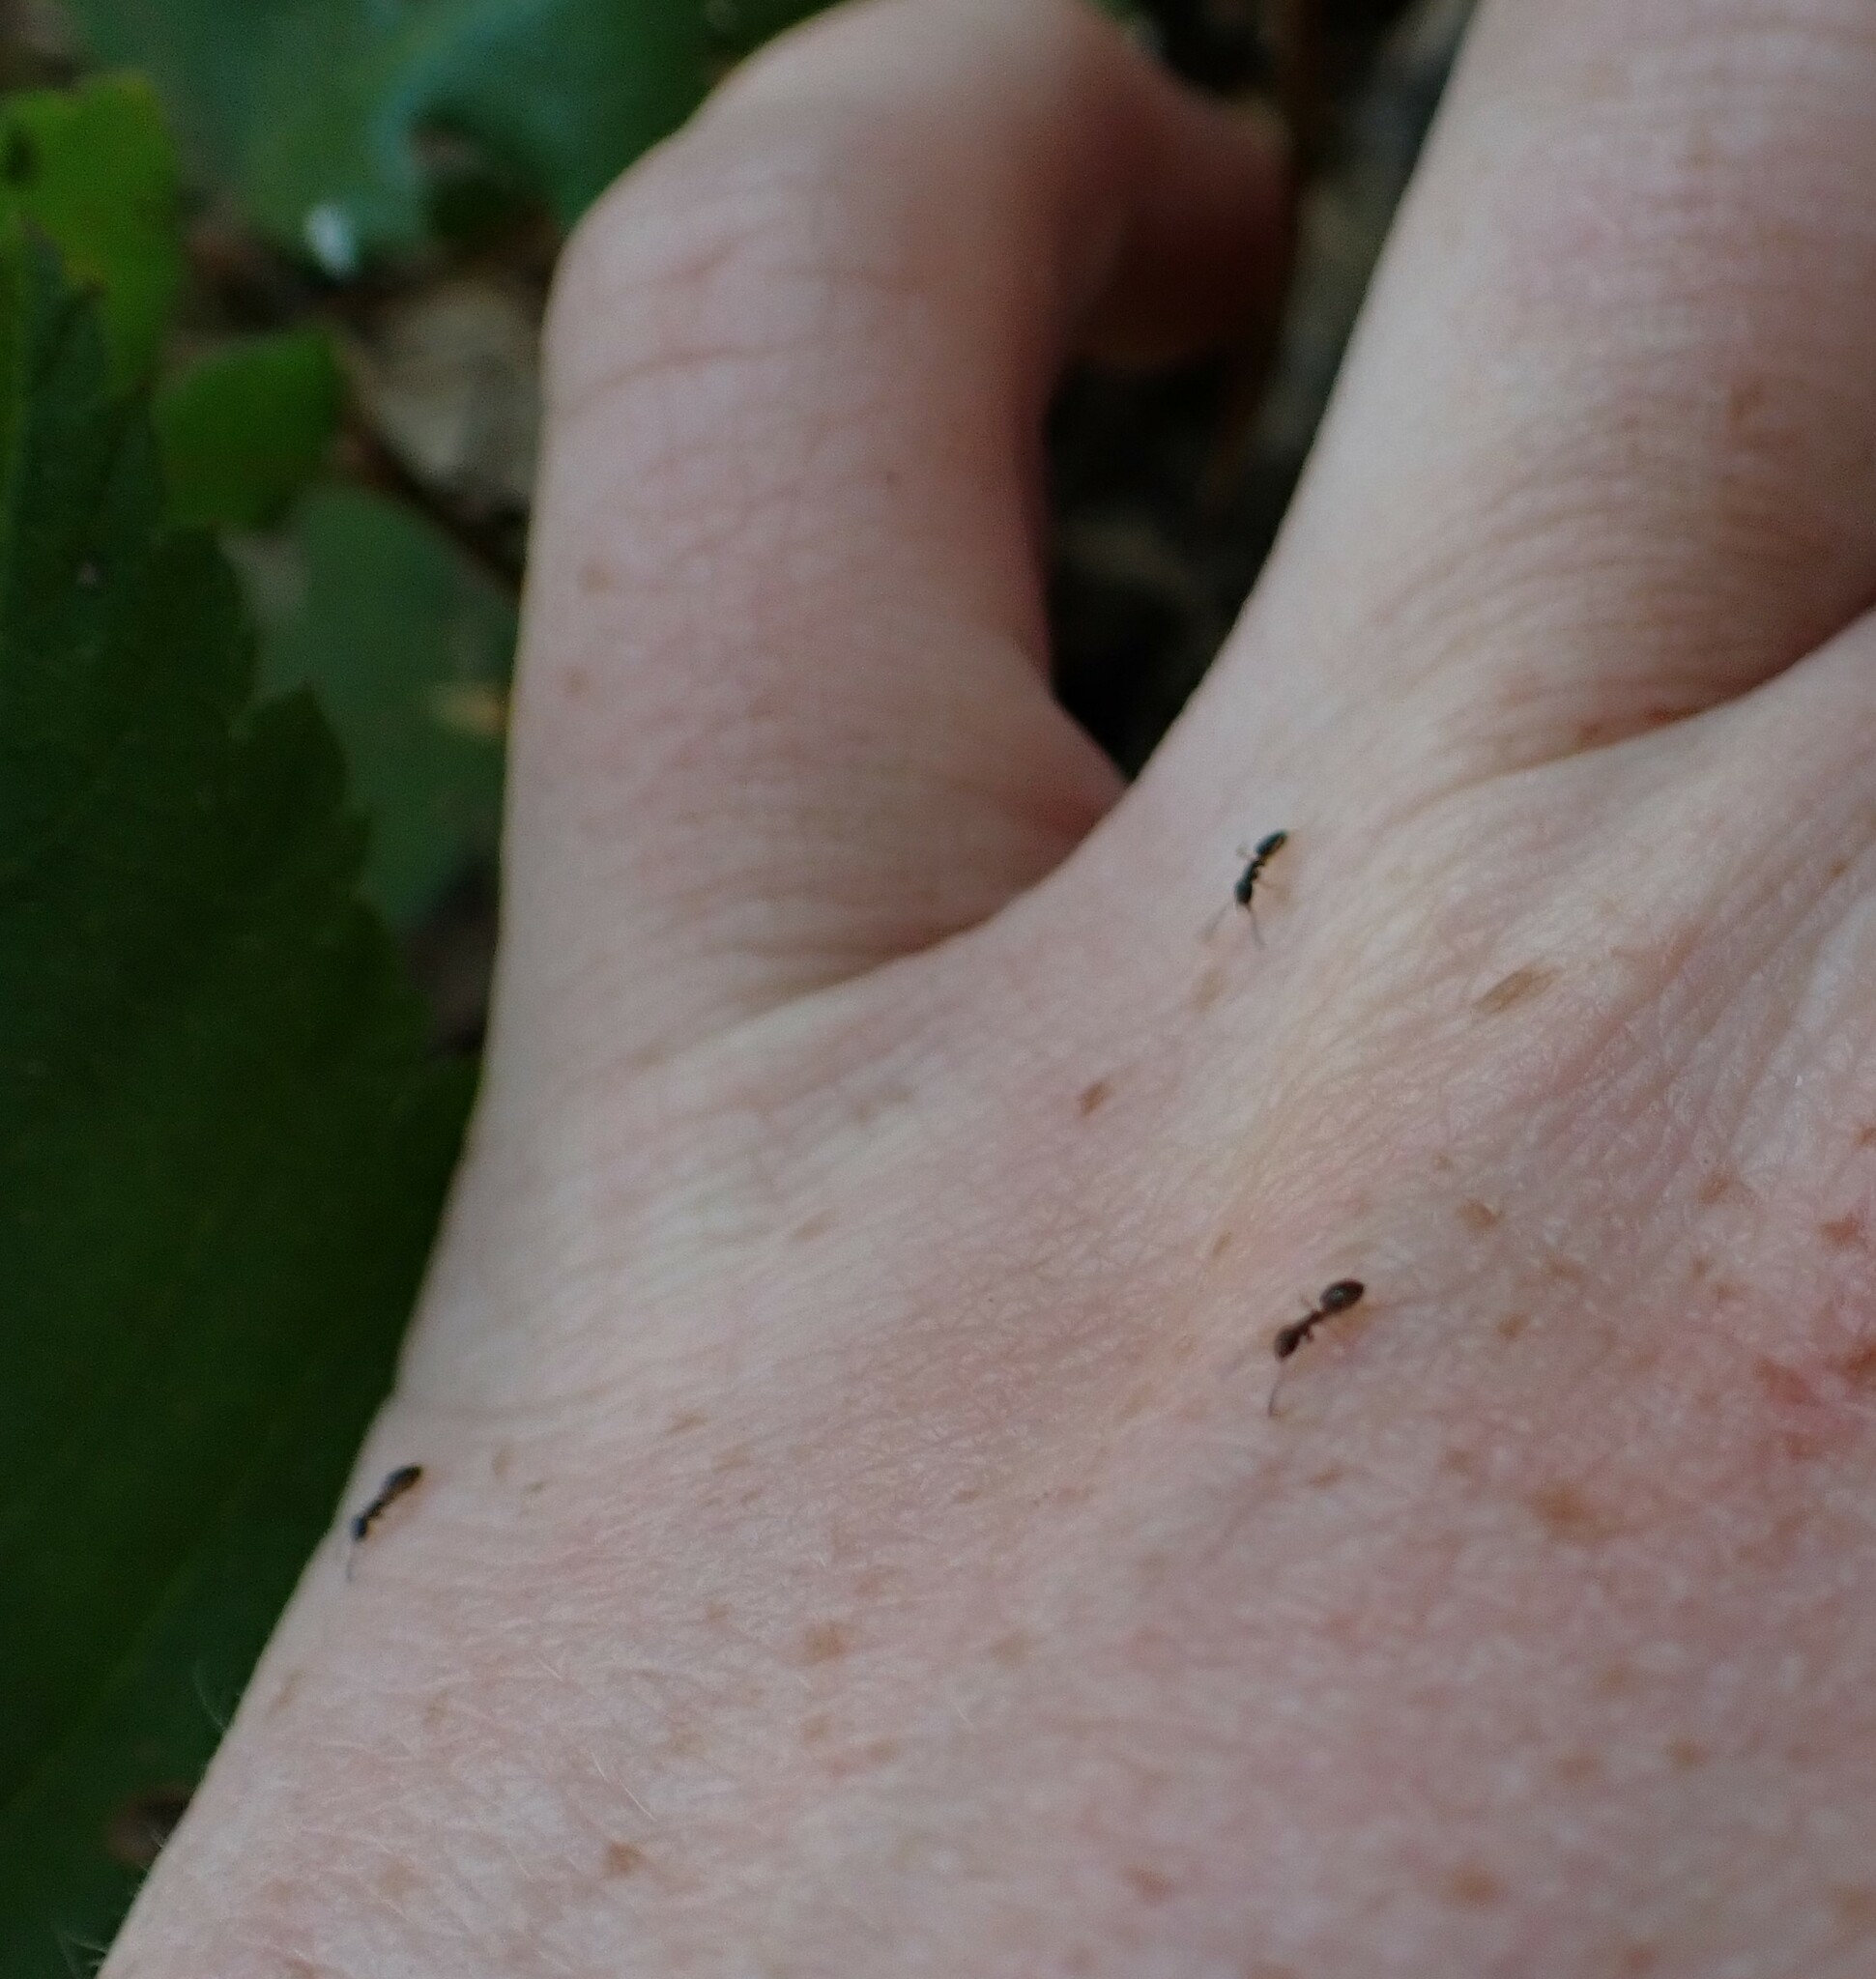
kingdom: Animalia
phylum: Arthropoda
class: Insecta
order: Hymenoptera
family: Formicidae
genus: Tapinoma
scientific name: Tapinoma sessile
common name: Odorous house ant
